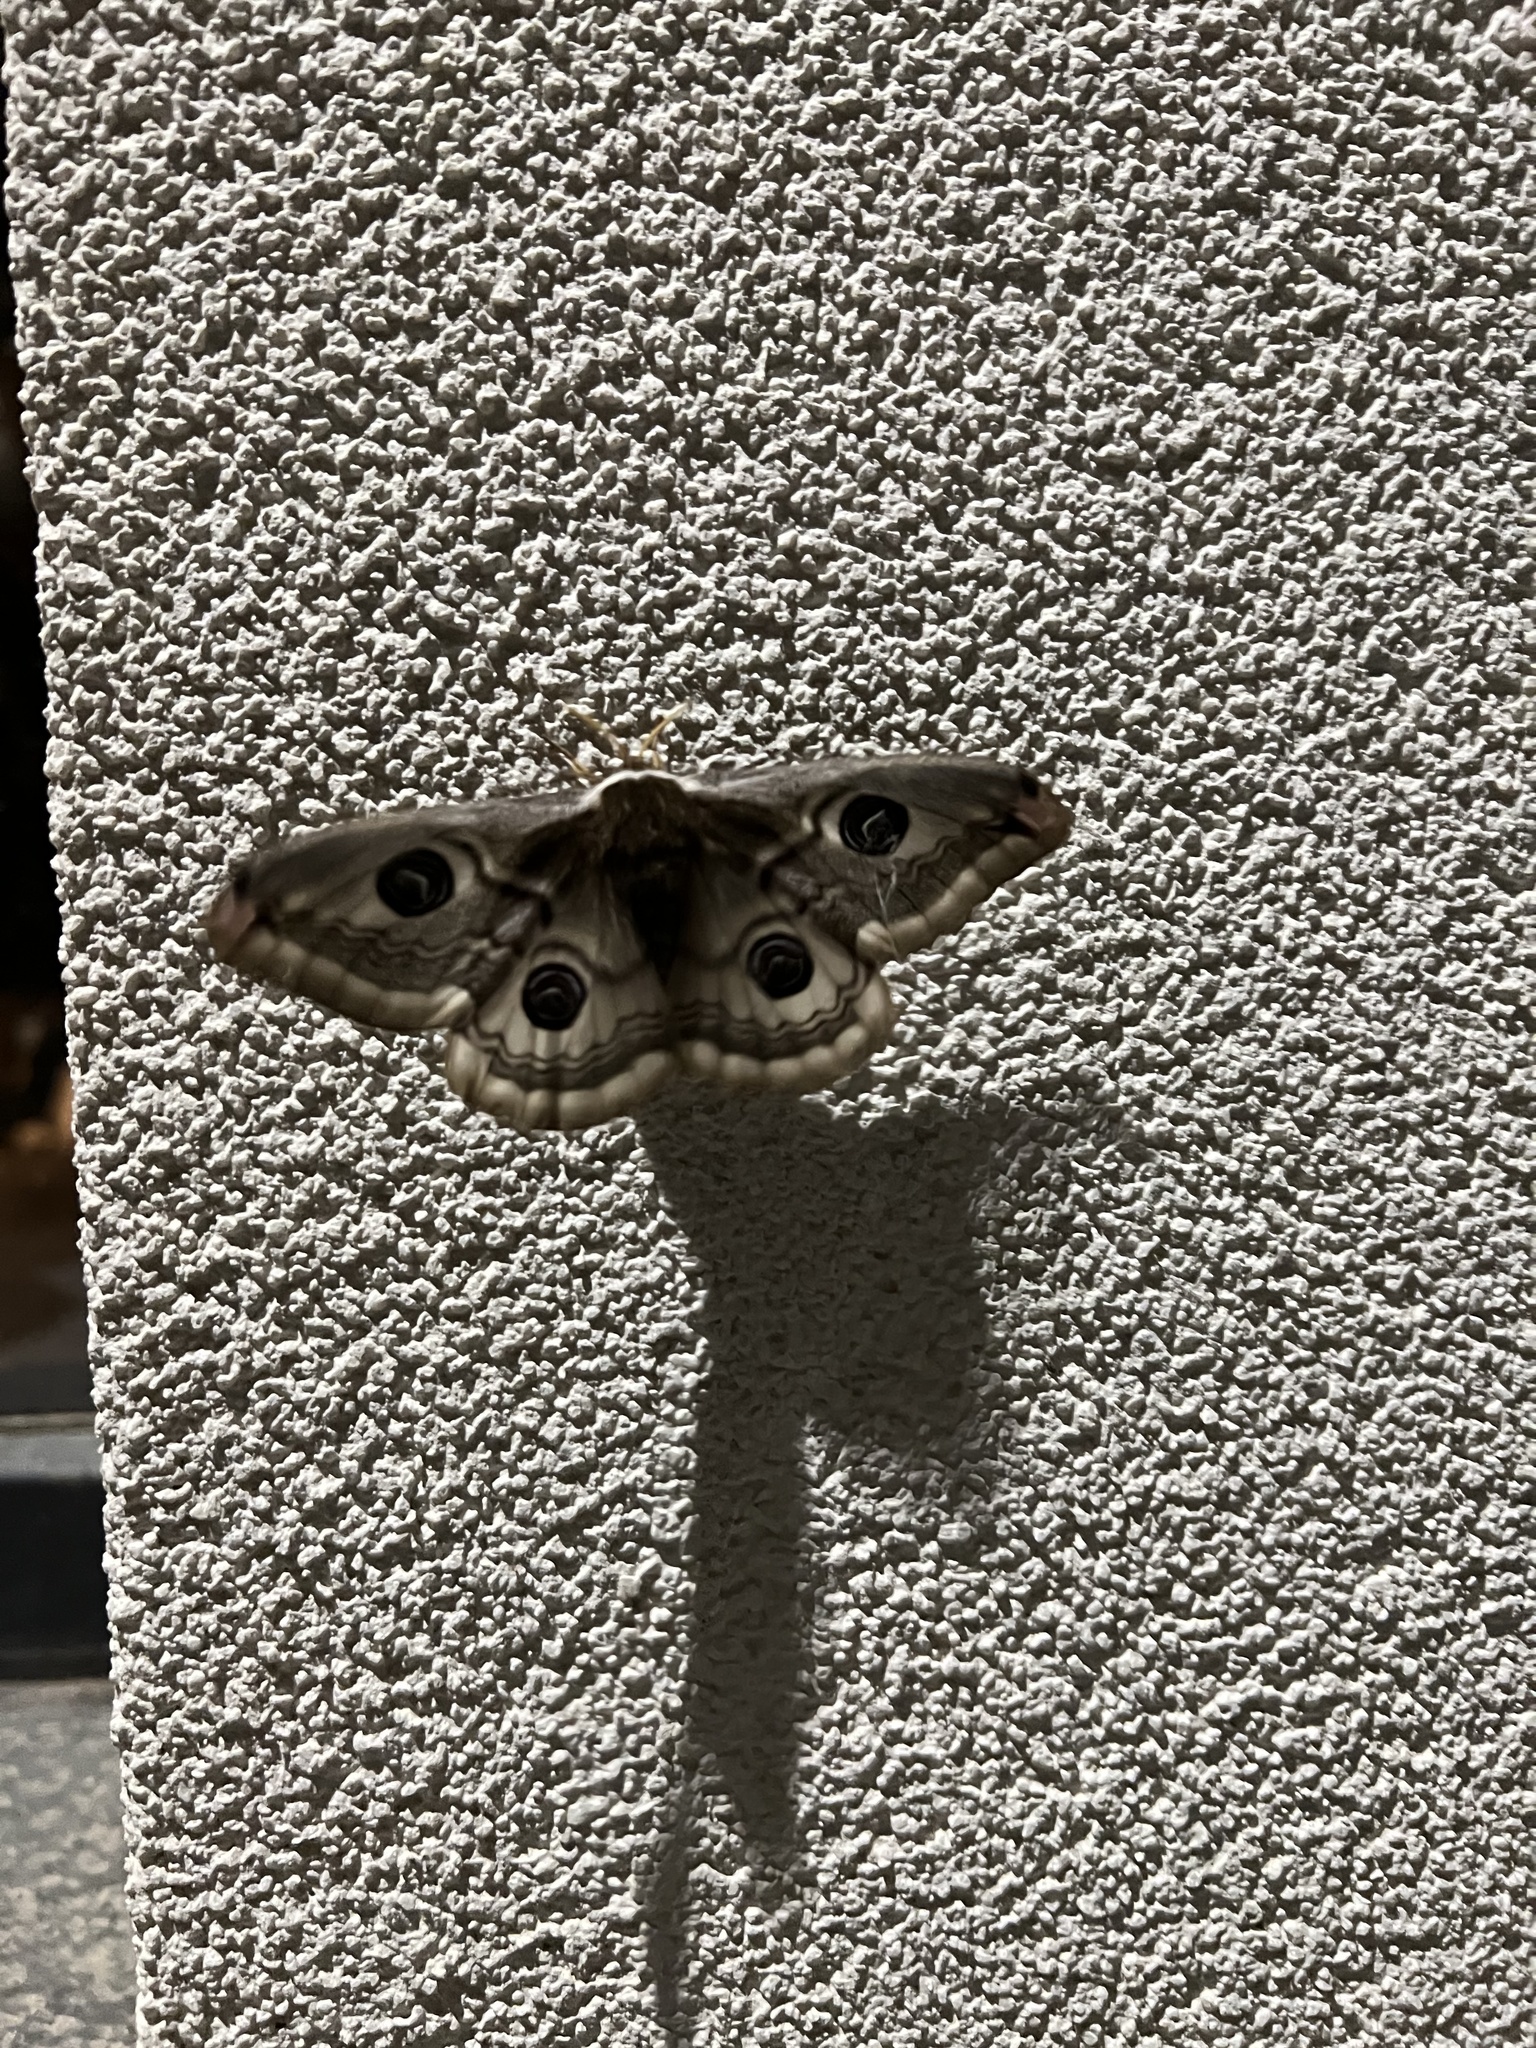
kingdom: Animalia
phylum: Arthropoda
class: Insecta
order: Lepidoptera
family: Saturniidae
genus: Saturnia
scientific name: Saturnia pavoniella
